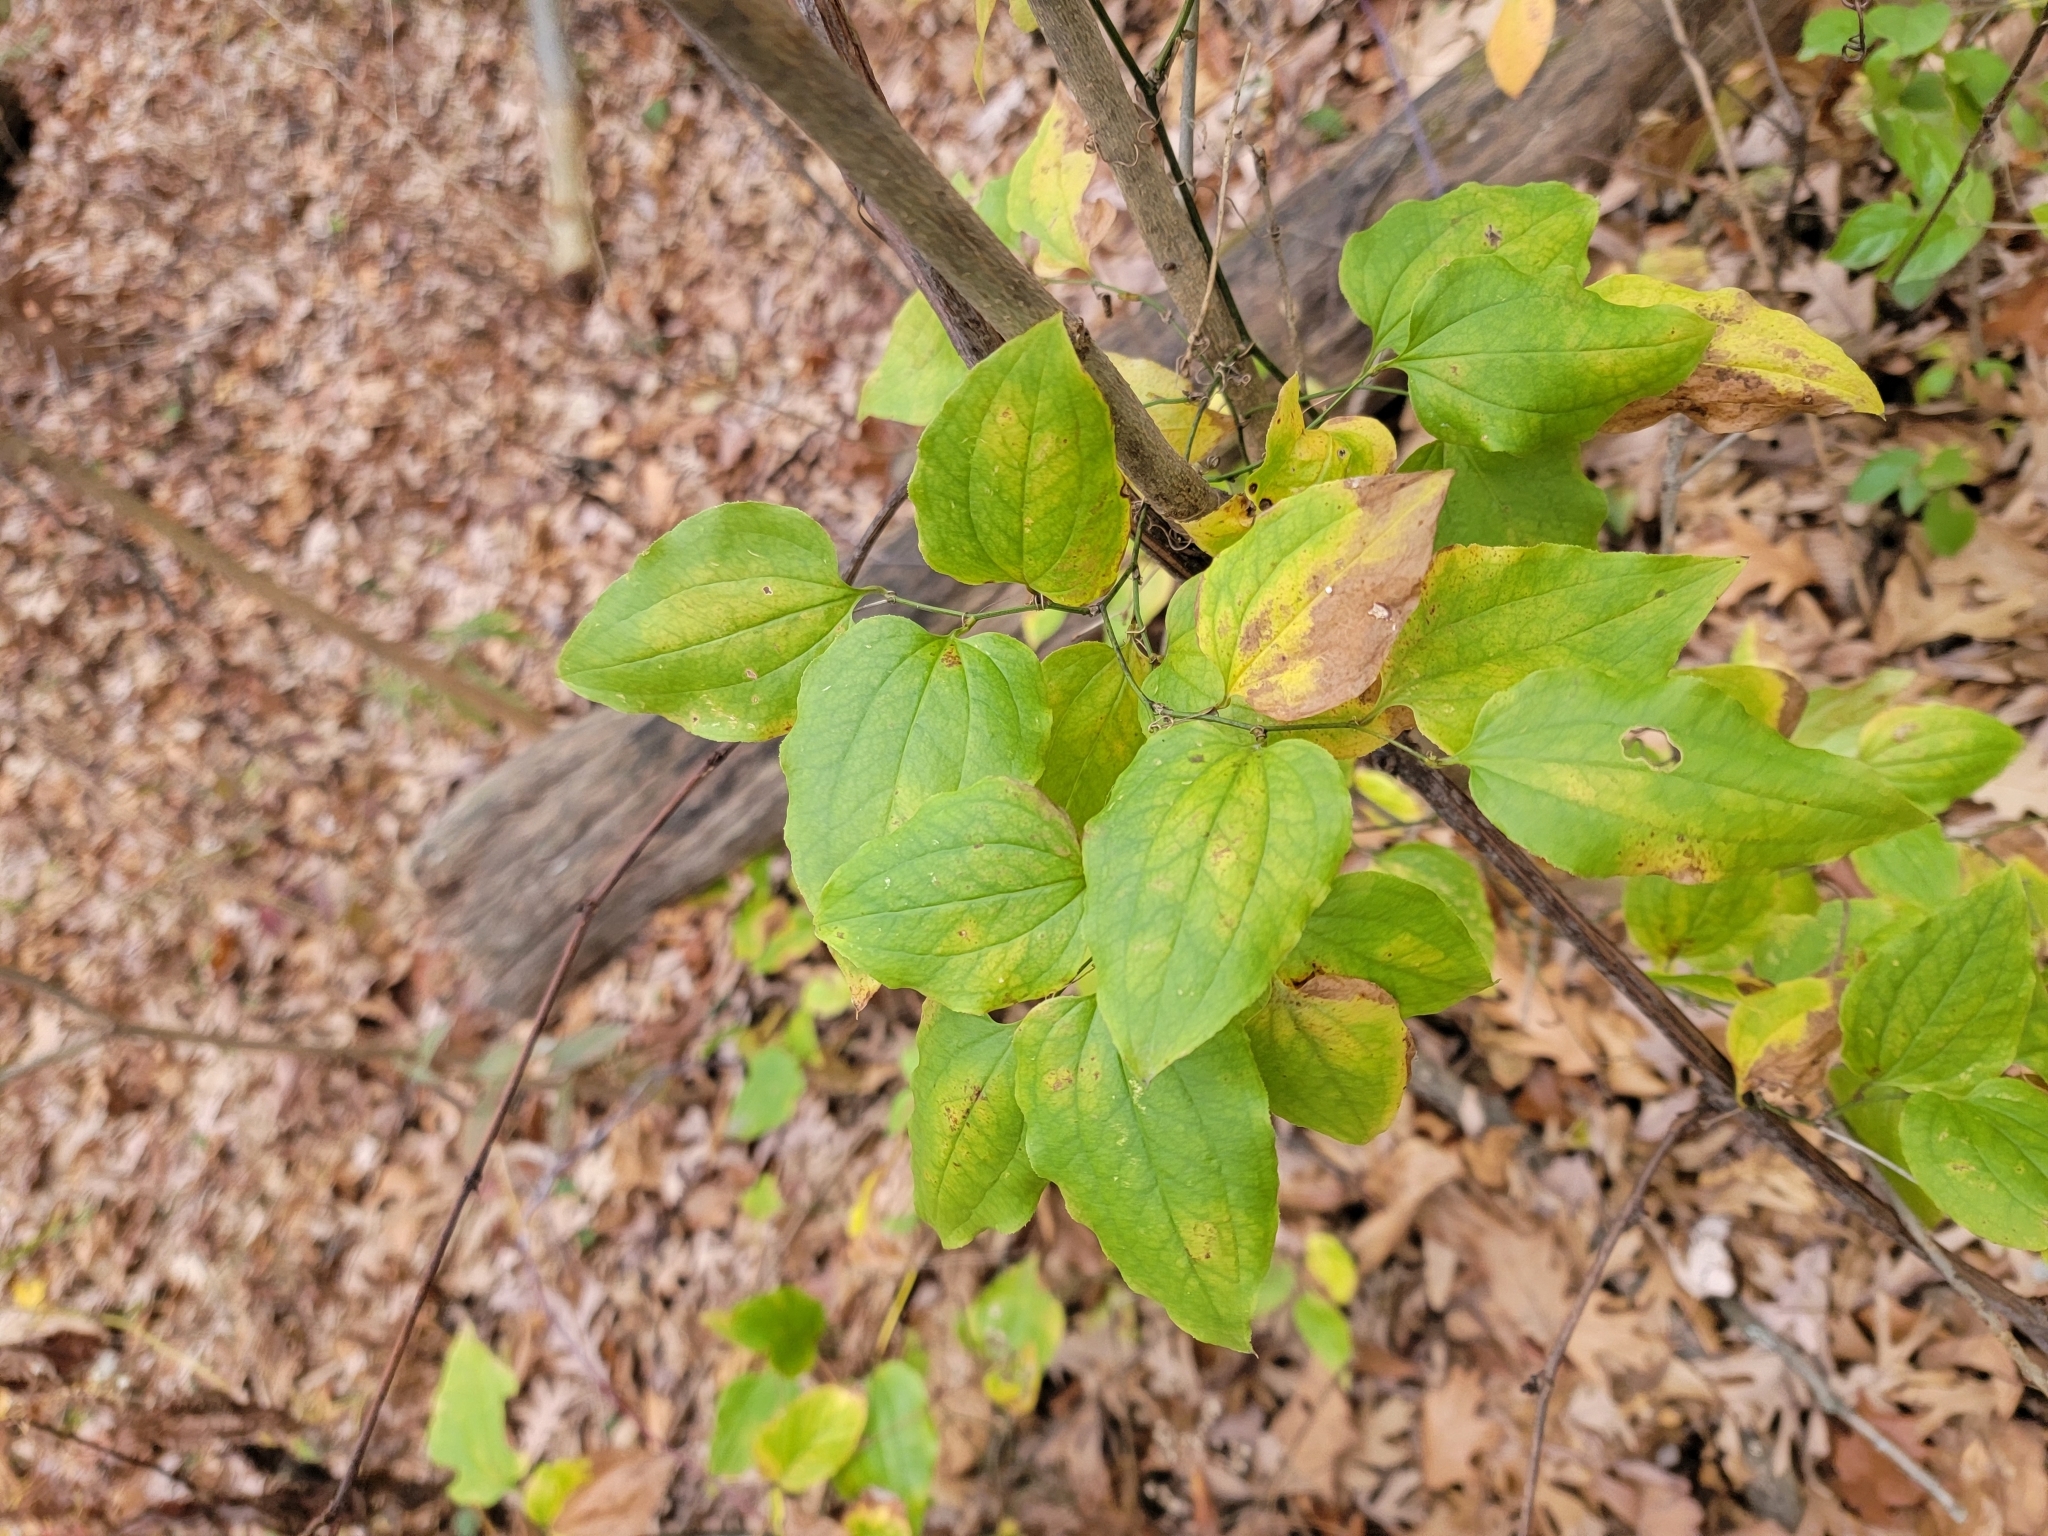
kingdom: Plantae
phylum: Tracheophyta
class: Liliopsida
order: Liliales
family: Smilacaceae
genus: Smilax
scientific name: Smilax tamnoides
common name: Hellfetter
